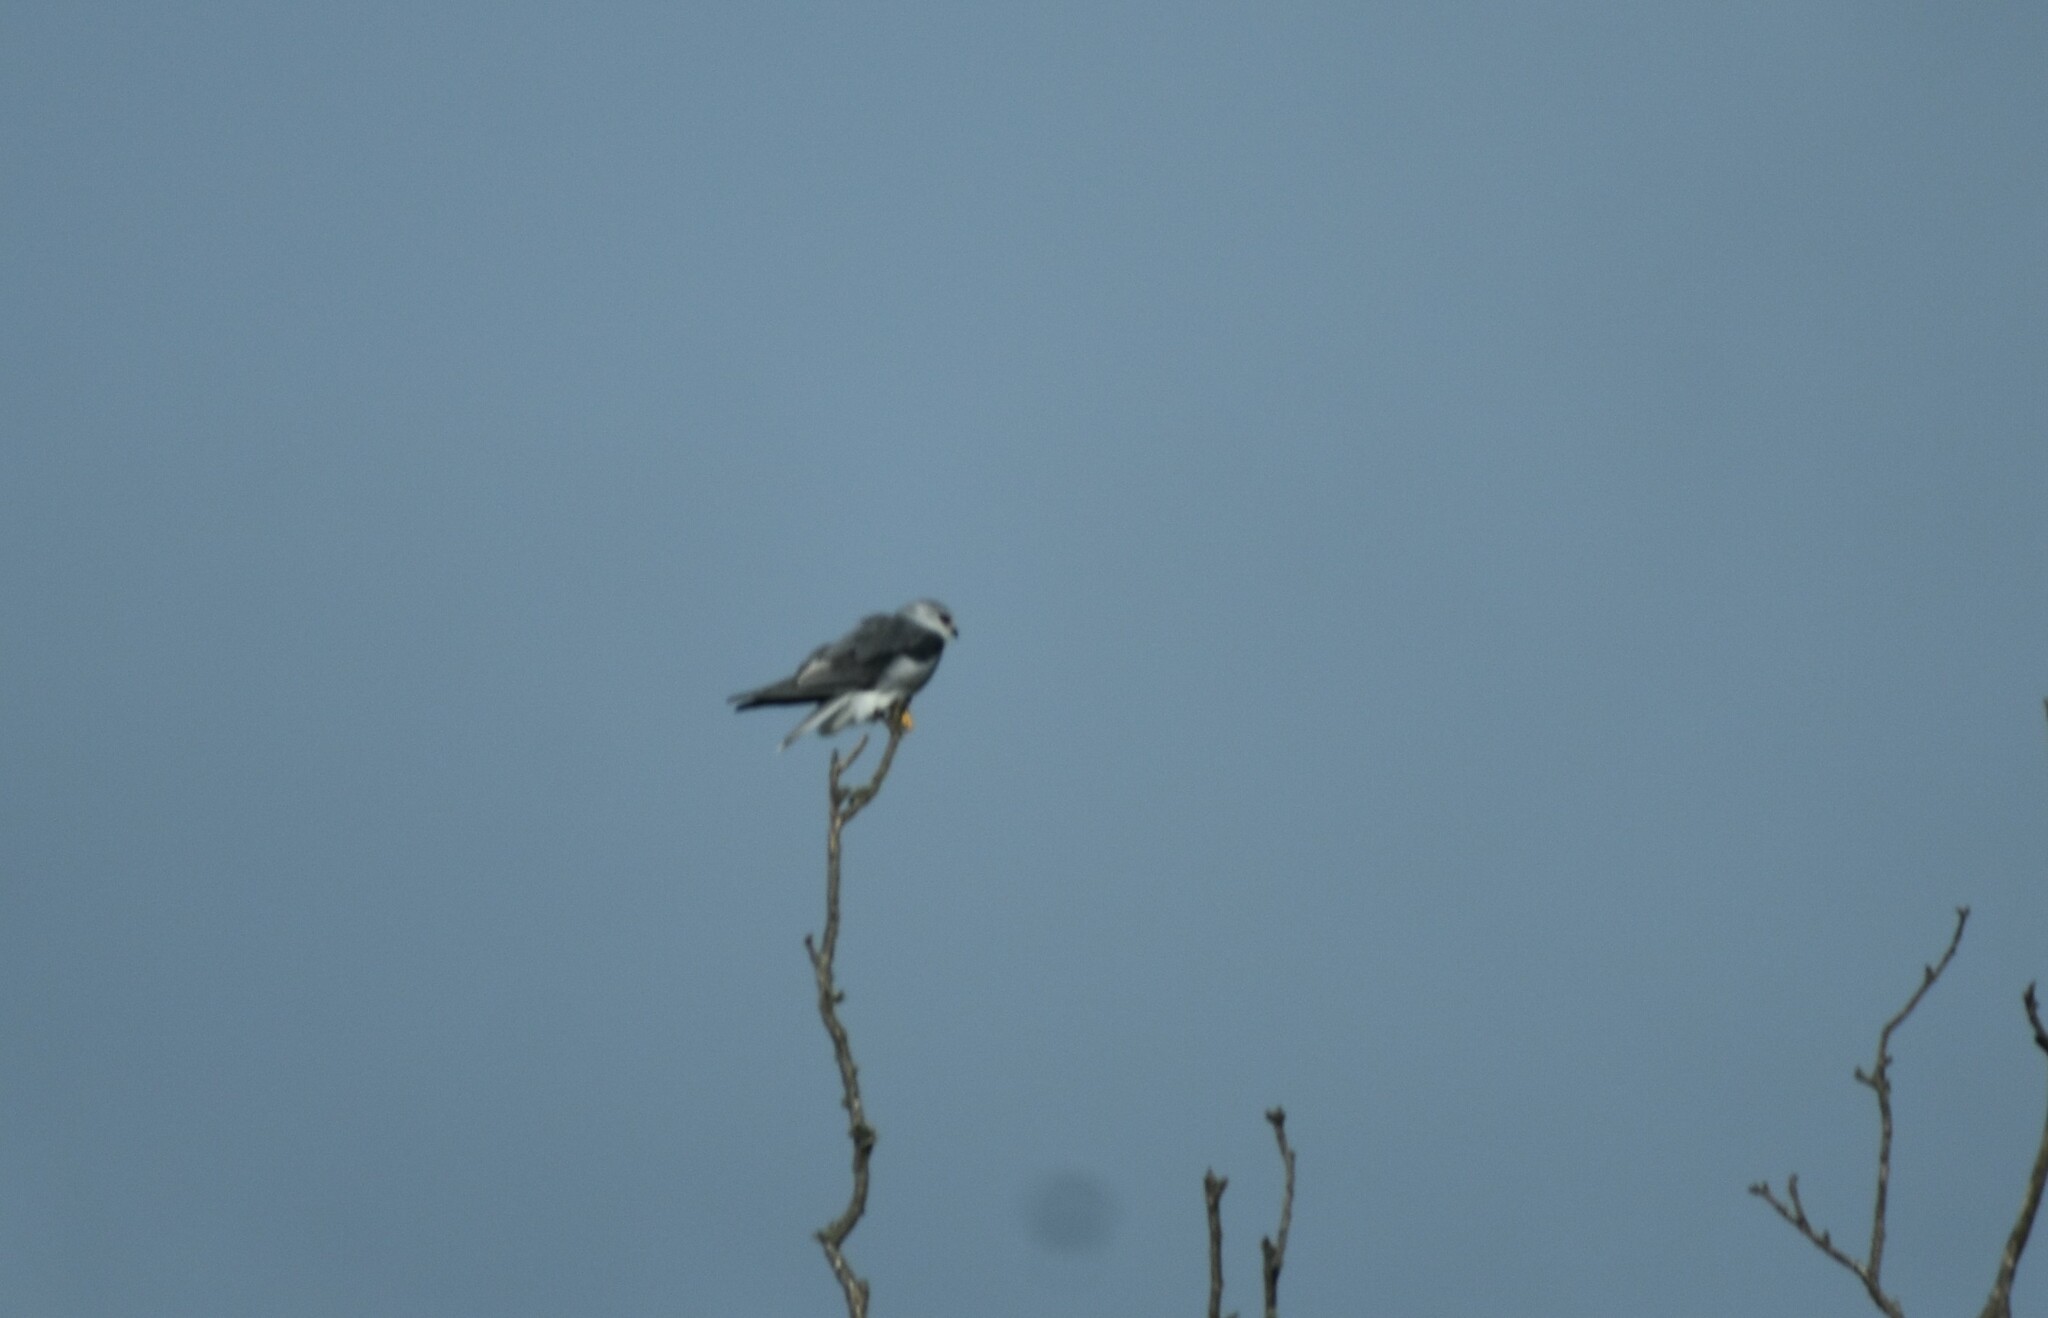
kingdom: Animalia
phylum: Chordata
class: Aves
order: Accipitriformes
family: Accipitridae
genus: Elanus
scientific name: Elanus caeruleus
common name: Black-winged kite
